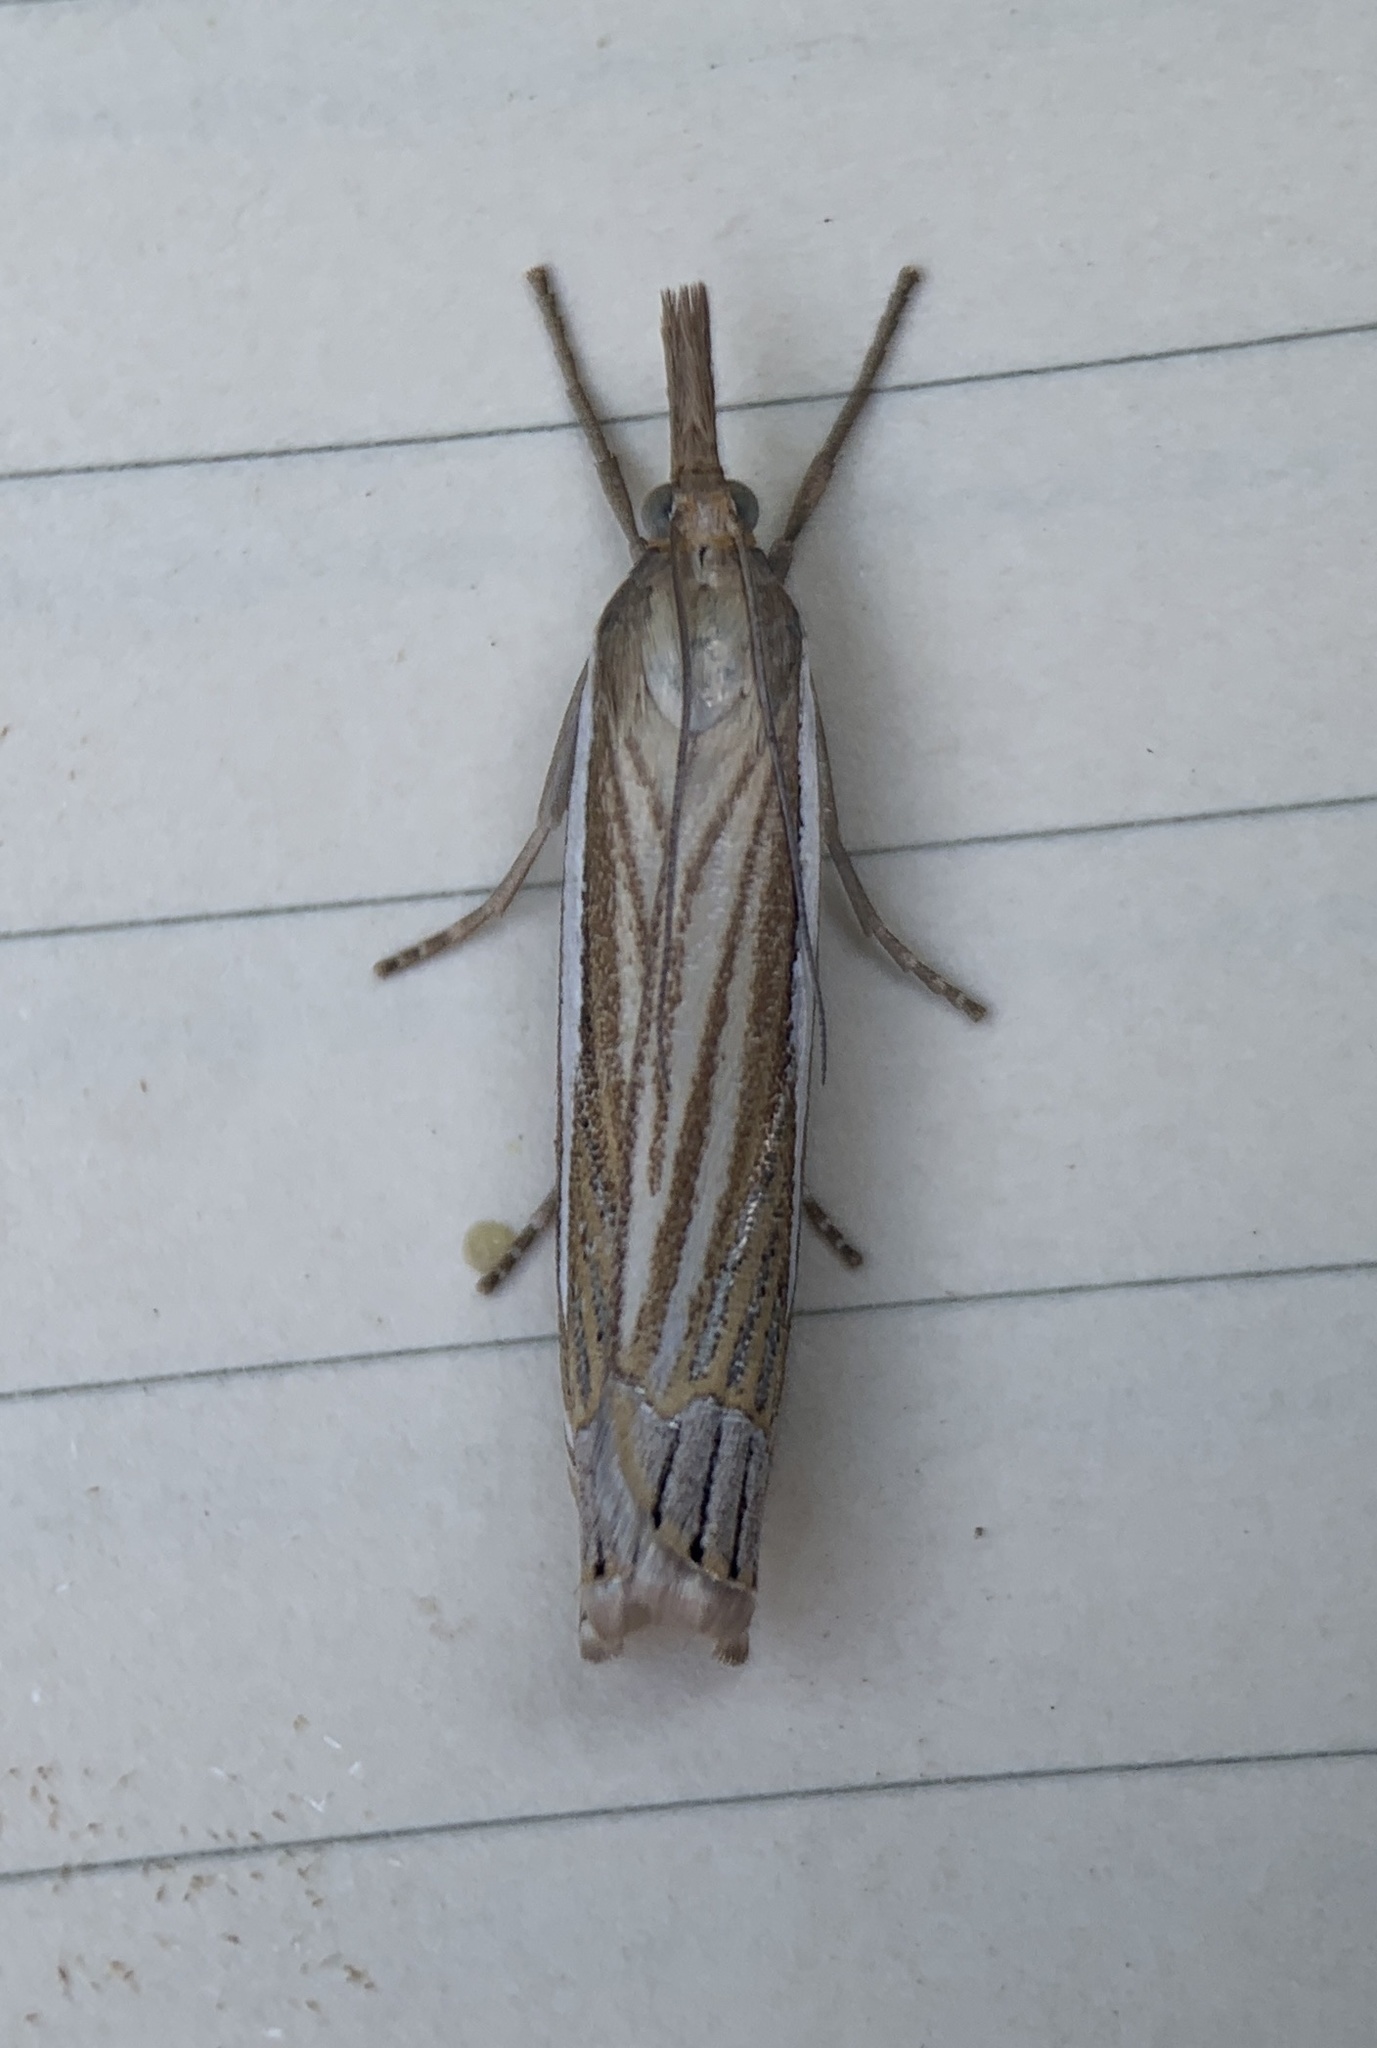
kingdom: Animalia
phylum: Arthropoda
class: Insecta
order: Lepidoptera
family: Crambidae
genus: Crambus
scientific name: Crambus laqueatellus
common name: Eastern grass-veneer
